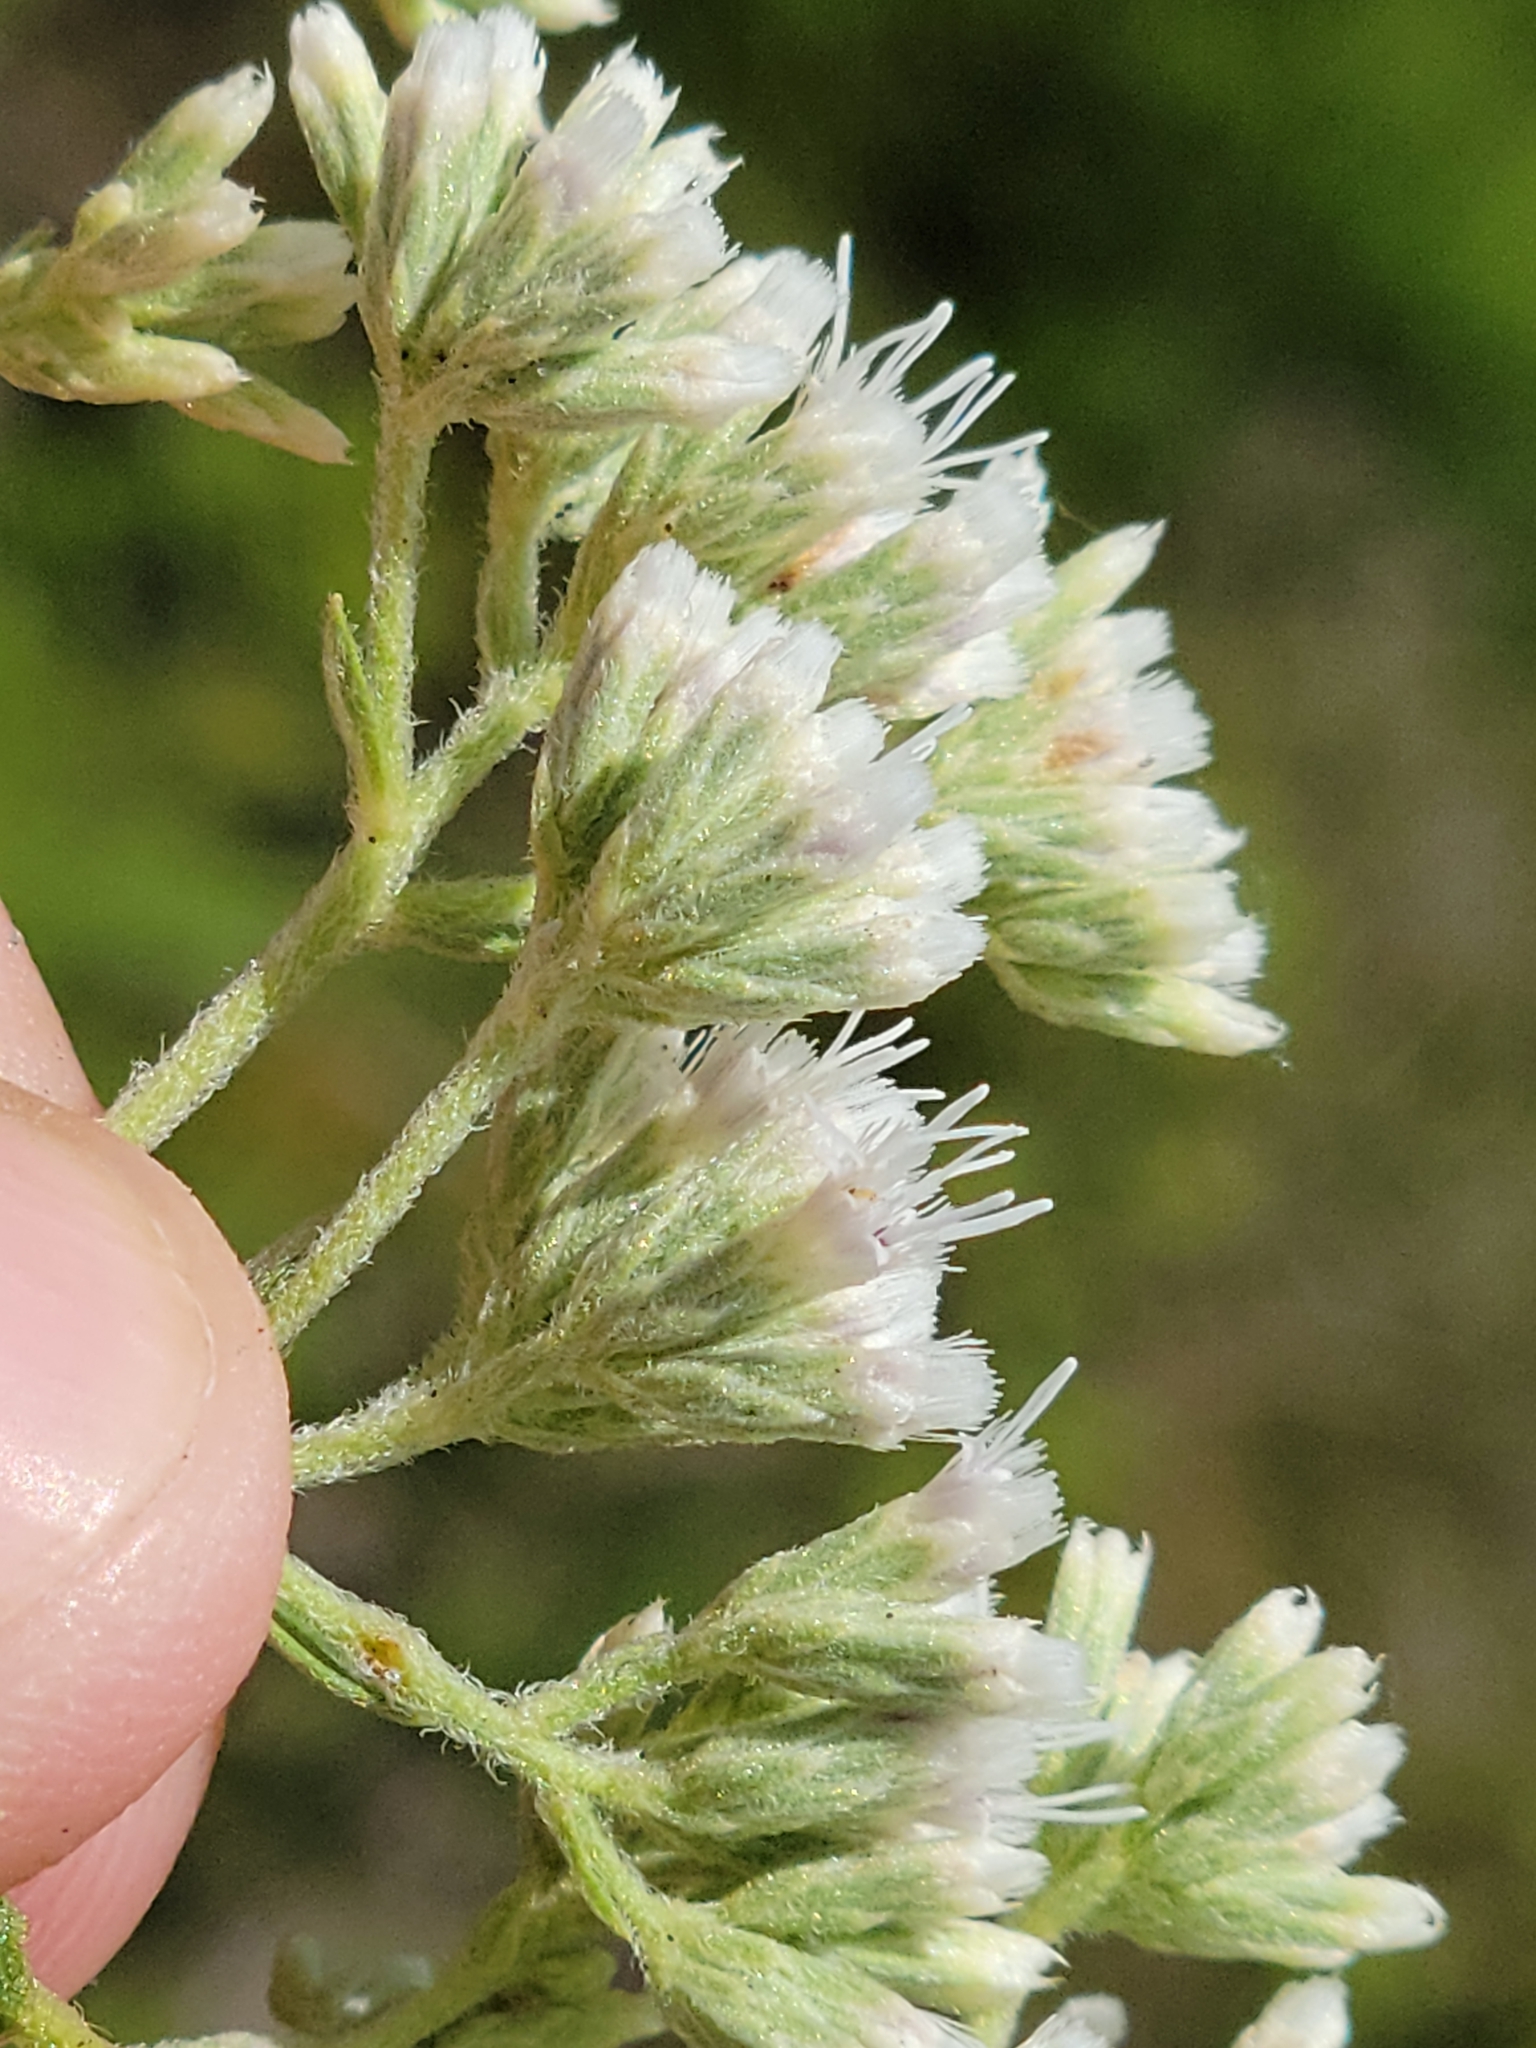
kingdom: Plantae
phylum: Tracheophyta
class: Magnoliopsida
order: Asterales
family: Asteraceae
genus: Eupatorium
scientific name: Eupatorium rotundifolium
